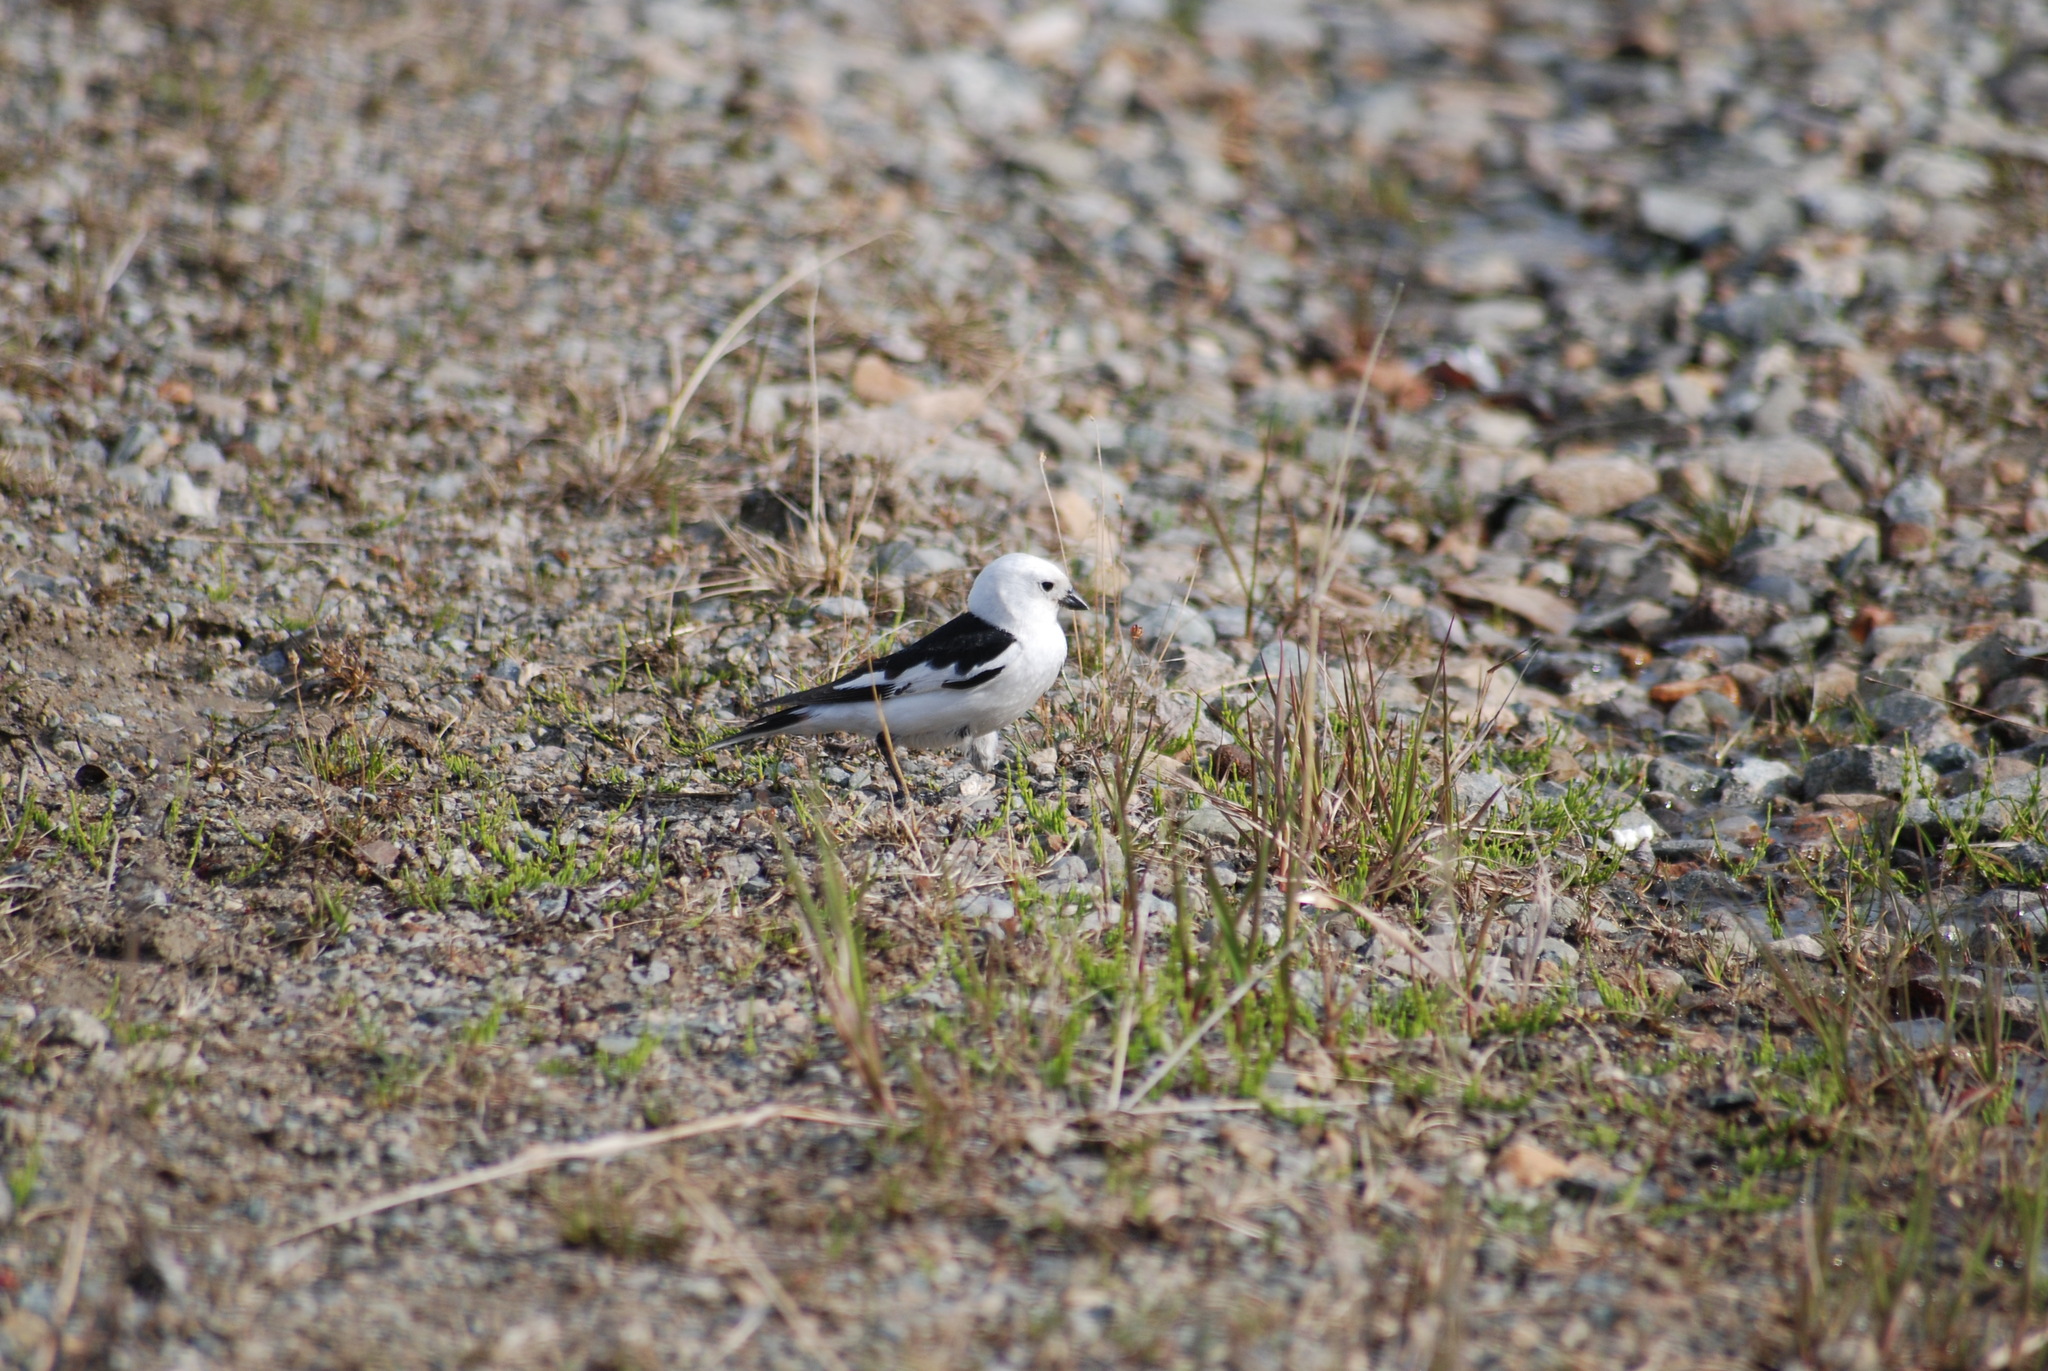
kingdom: Animalia
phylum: Chordata
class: Aves
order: Passeriformes
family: Calcariidae
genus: Plectrophenax
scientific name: Plectrophenax nivalis
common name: Snow bunting
